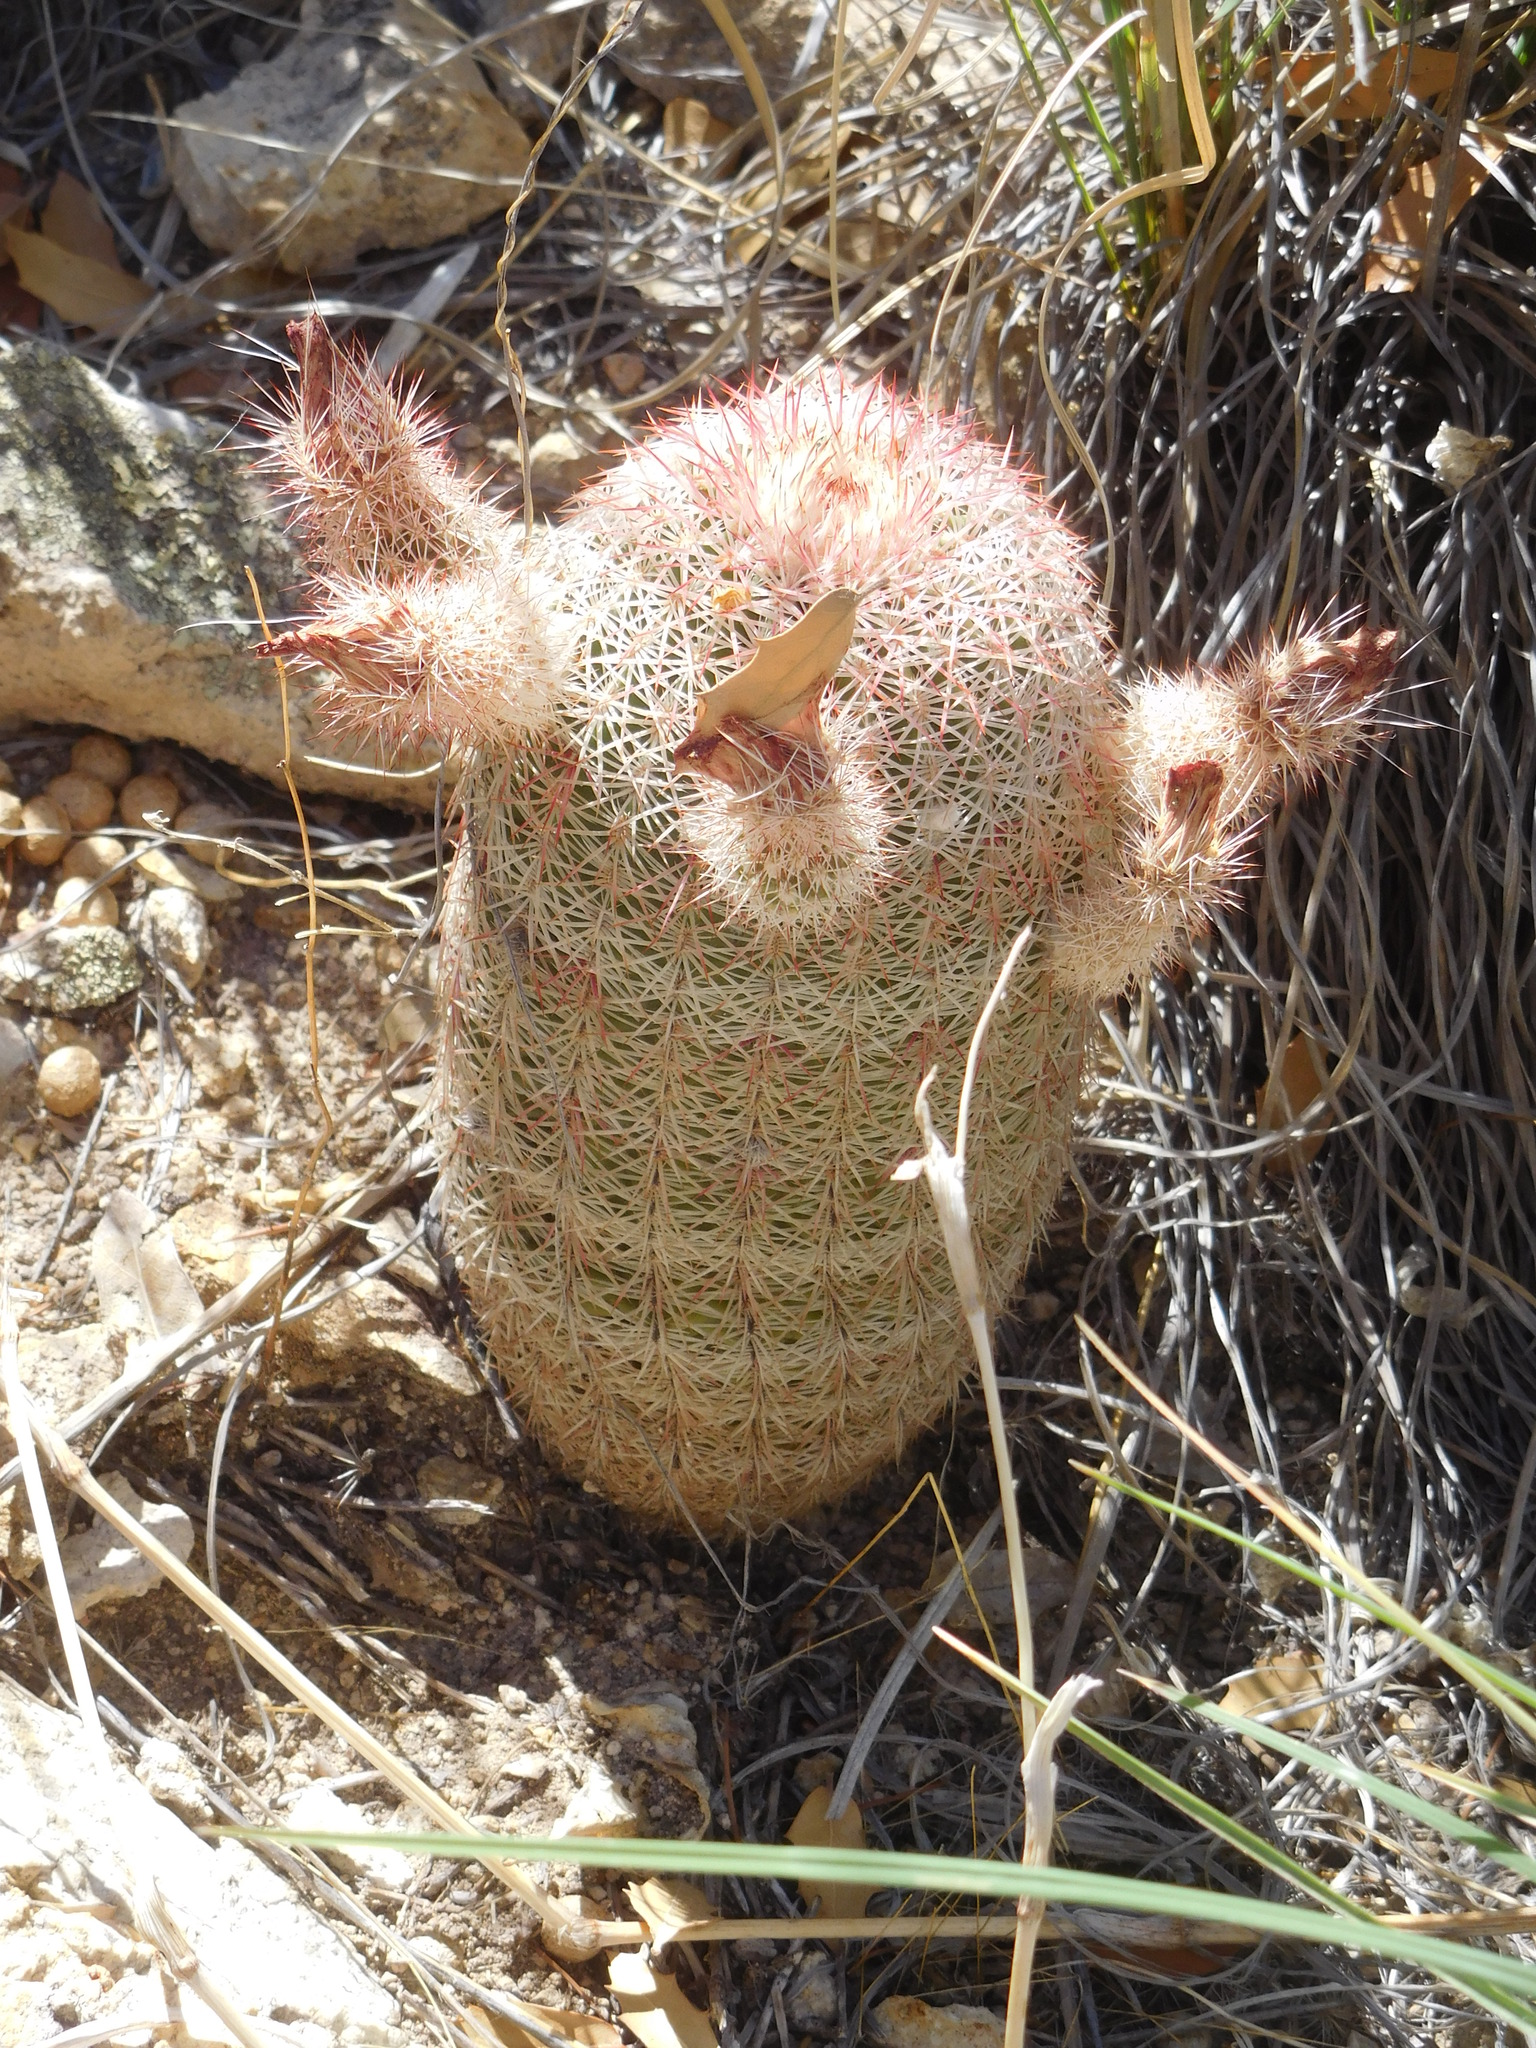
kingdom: Plantae
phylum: Tracheophyta
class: Magnoliopsida
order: Caryophyllales
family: Cactaceae
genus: Echinocereus
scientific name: Echinocereus rigidissimus
